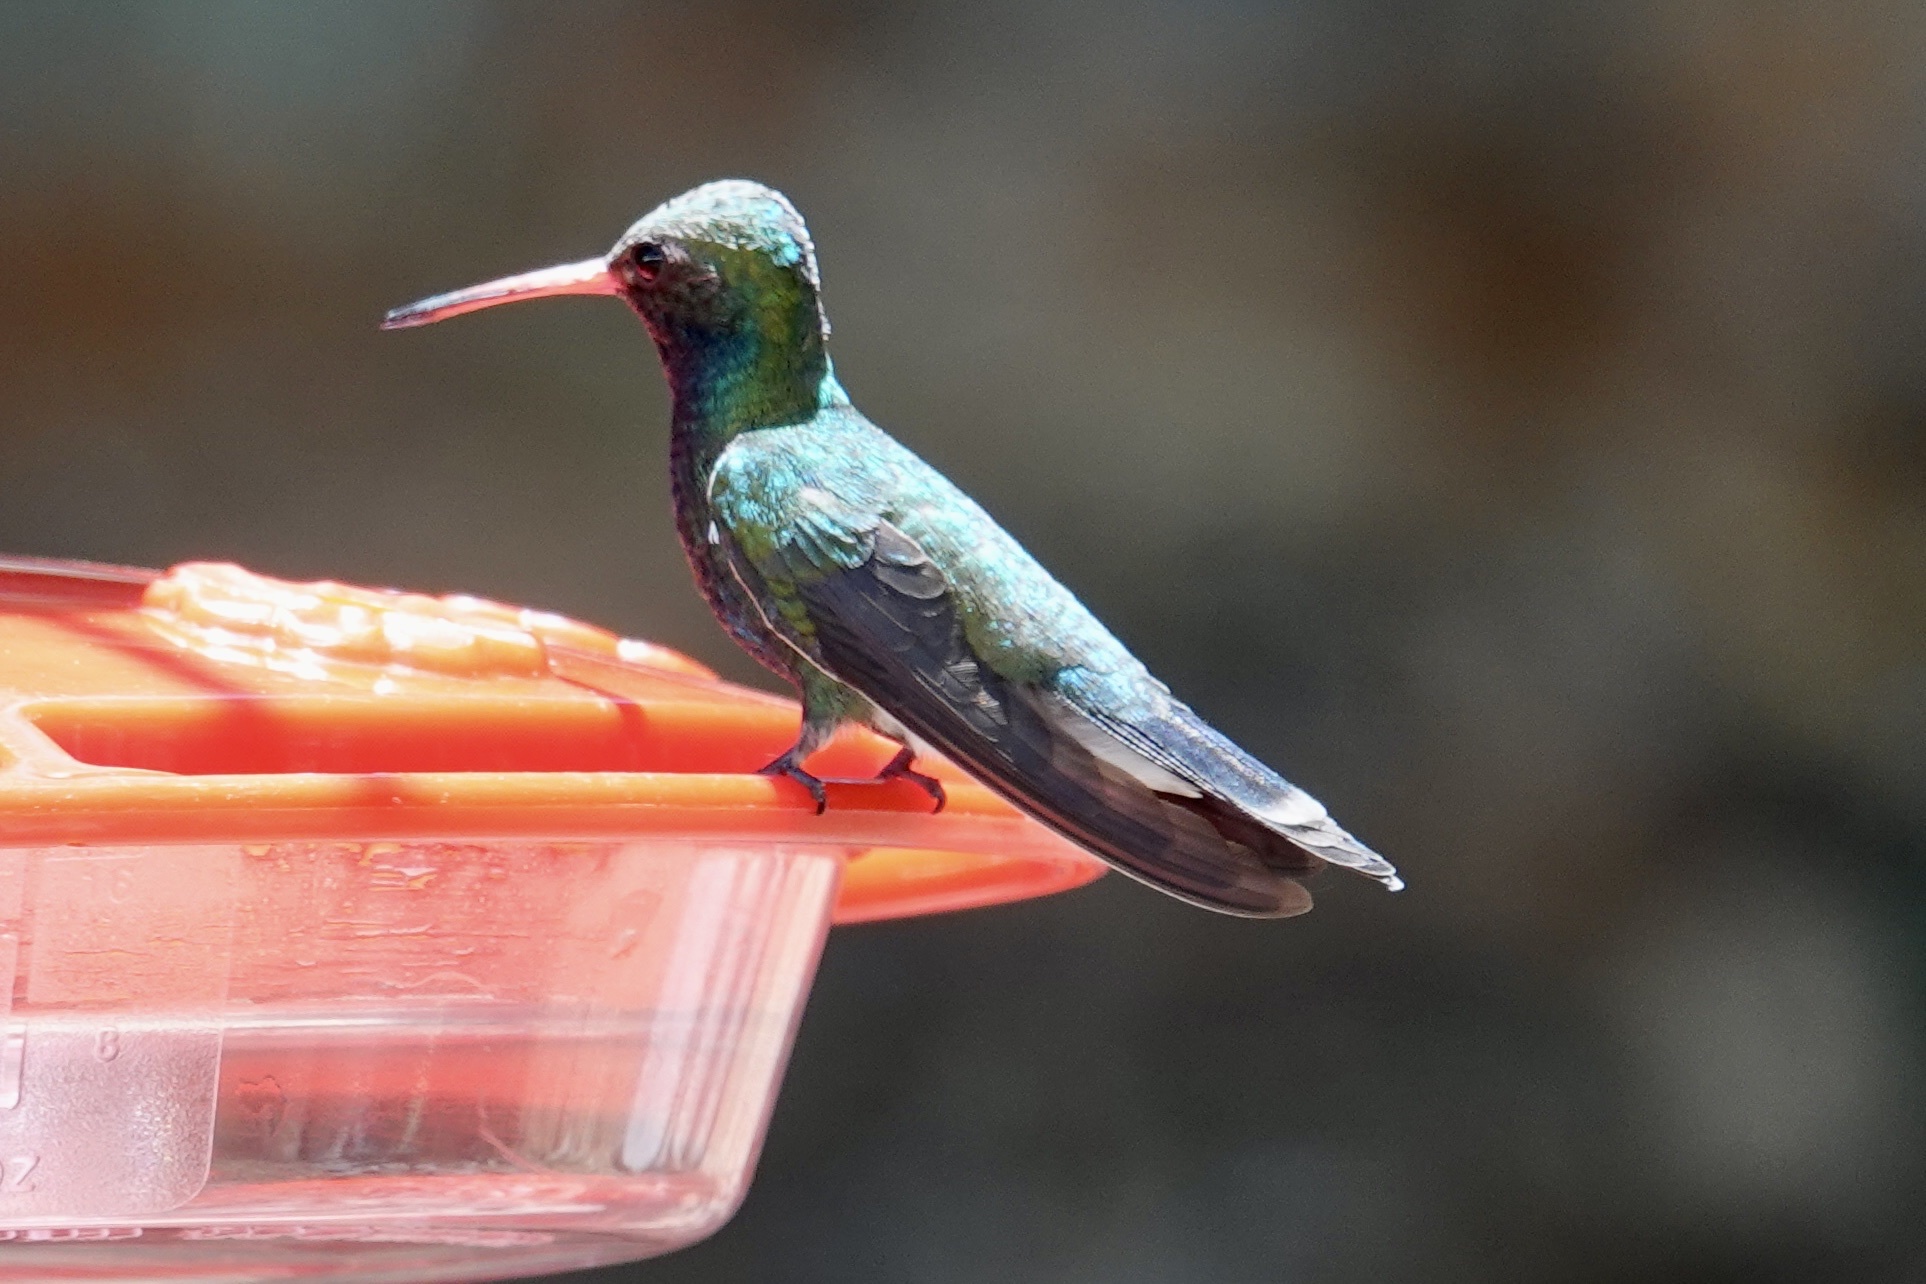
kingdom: Animalia
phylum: Chordata
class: Aves
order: Apodiformes
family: Trochilidae
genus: Cynanthus
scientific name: Cynanthus latirostris
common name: Broad-billed hummingbird
